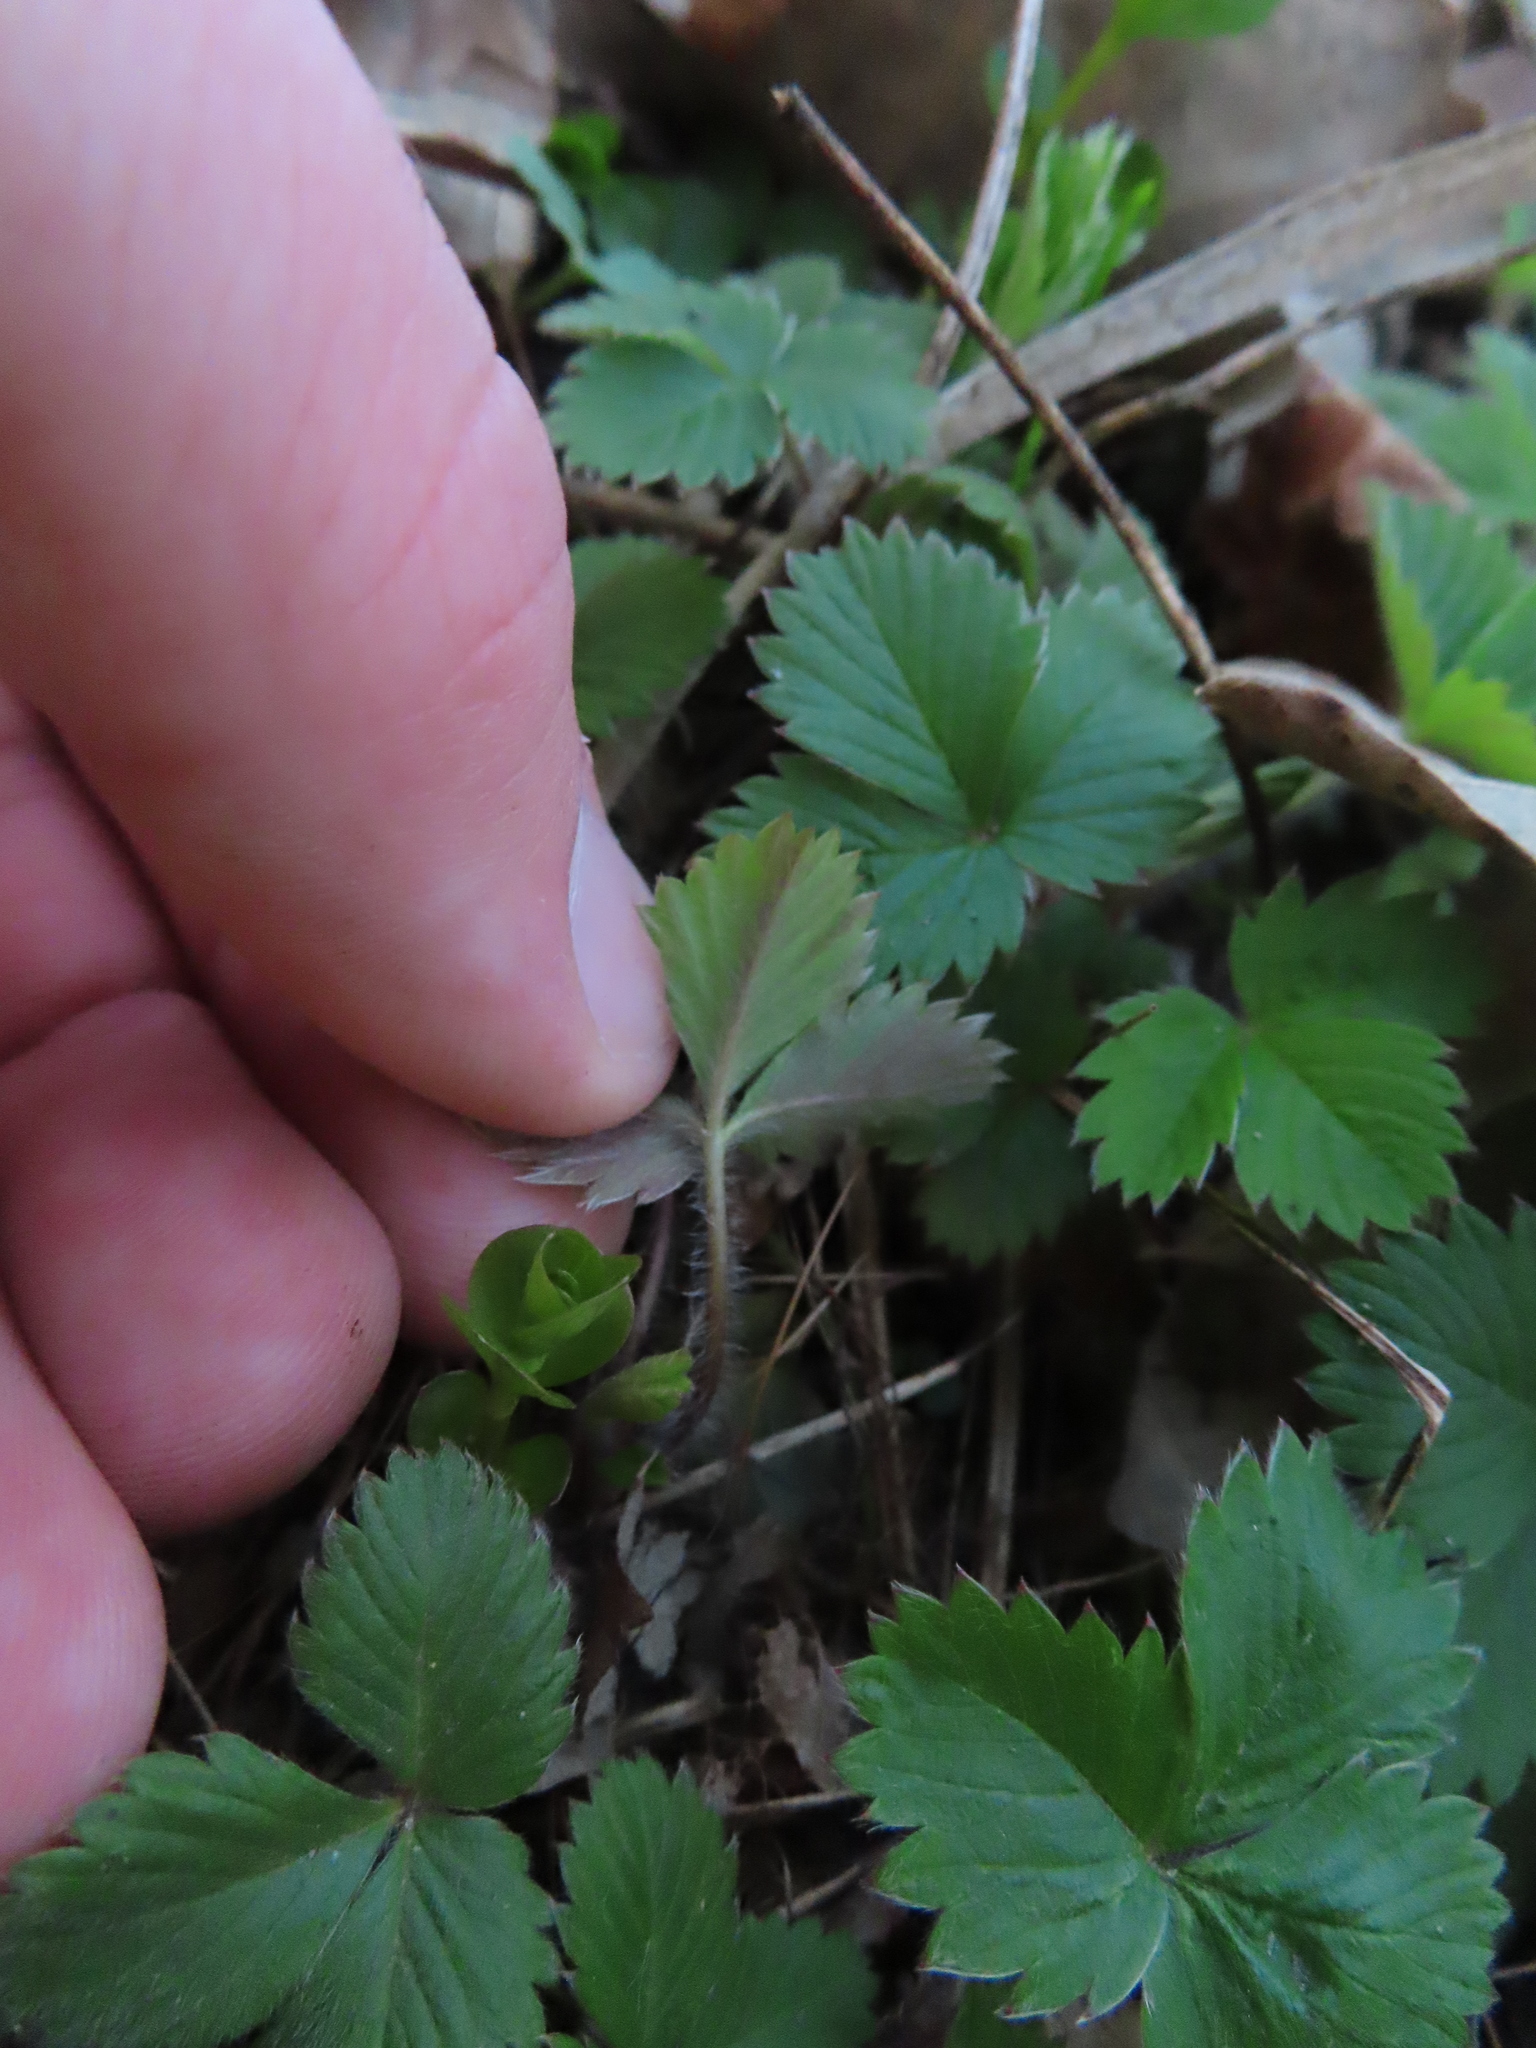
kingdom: Plantae
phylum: Tracheophyta
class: Magnoliopsida
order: Rosales
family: Rosaceae
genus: Fragaria
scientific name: Fragaria vesca
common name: Wild strawberry
